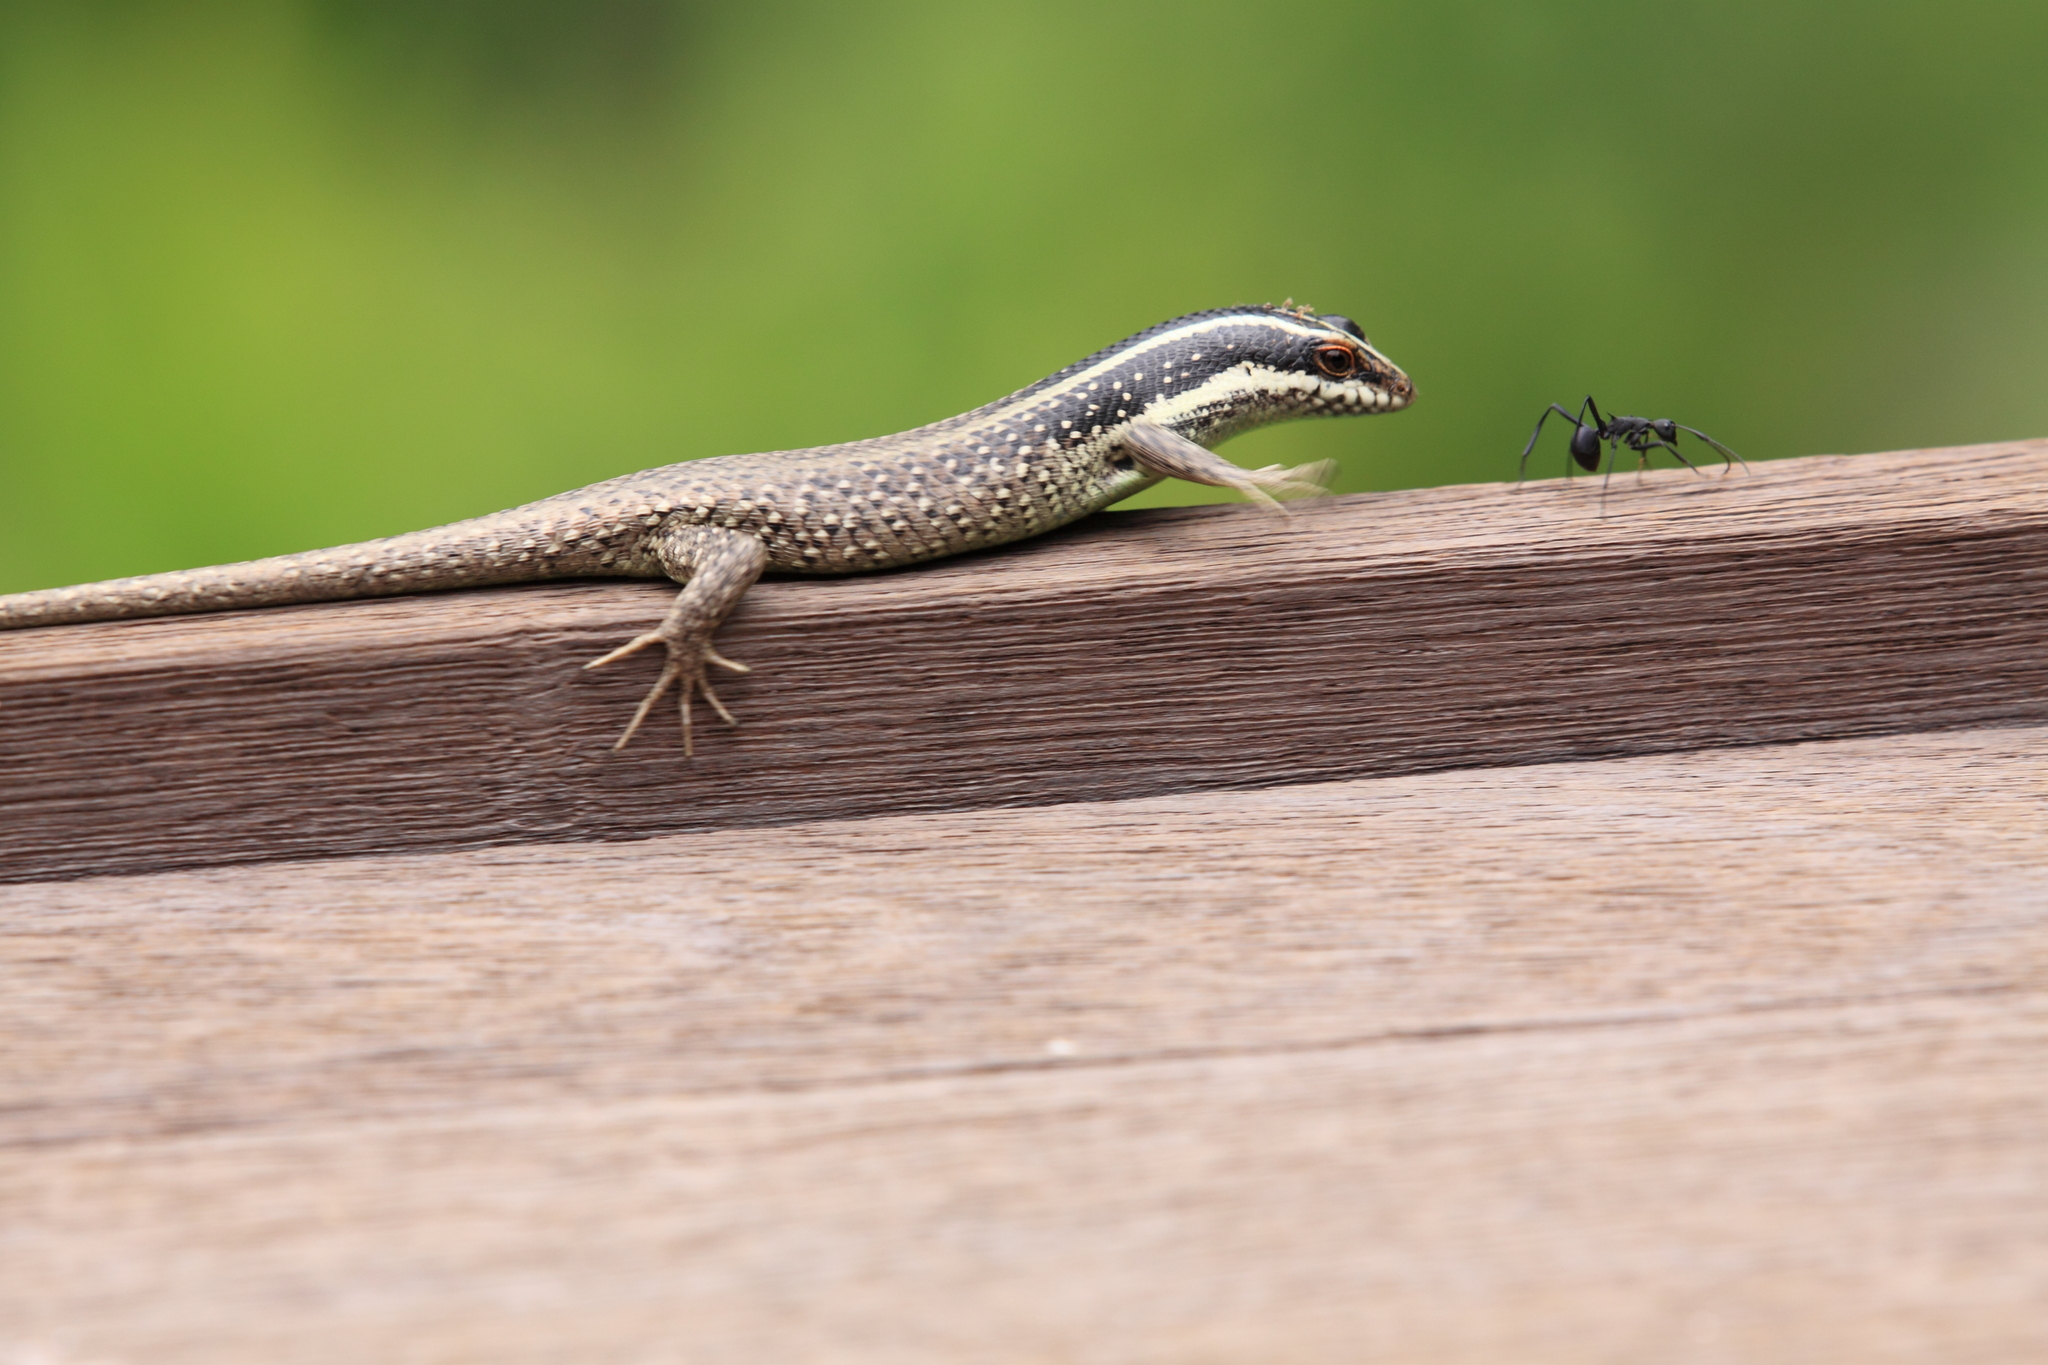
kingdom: Animalia
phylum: Chordata
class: Squamata
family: Scincidae
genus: Dasia
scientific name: Dasia vittata
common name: Borneo skink
